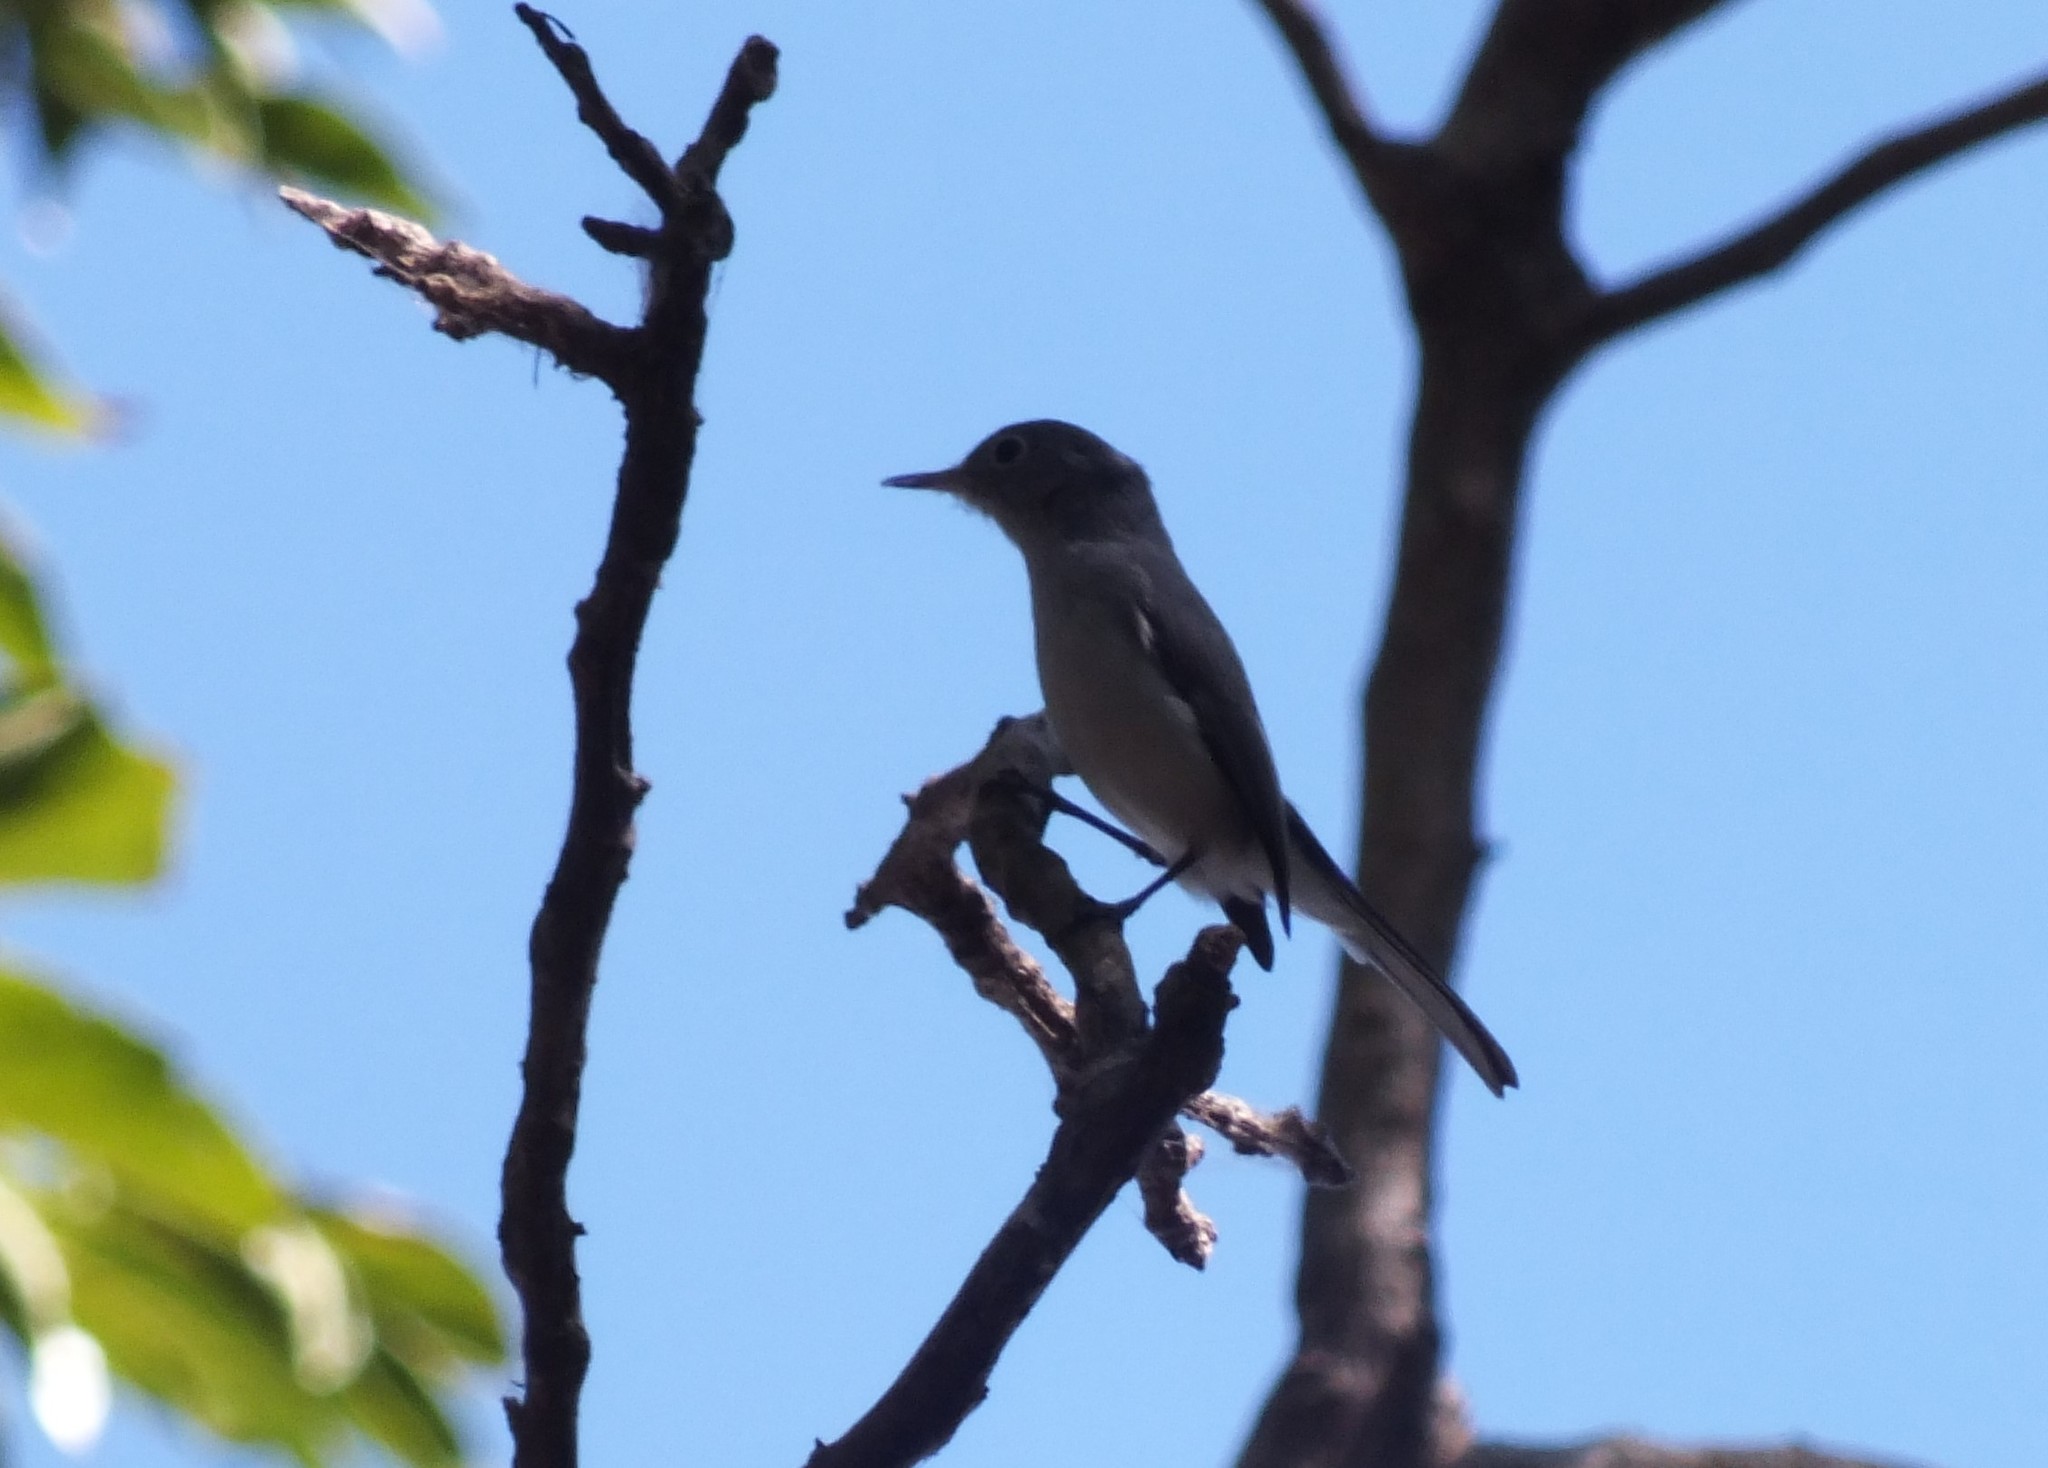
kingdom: Animalia
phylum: Chordata
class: Aves
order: Passeriformes
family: Polioptilidae
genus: Polioptila
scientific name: Polioptila caerulea
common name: Blue-gray gnatcatcher
